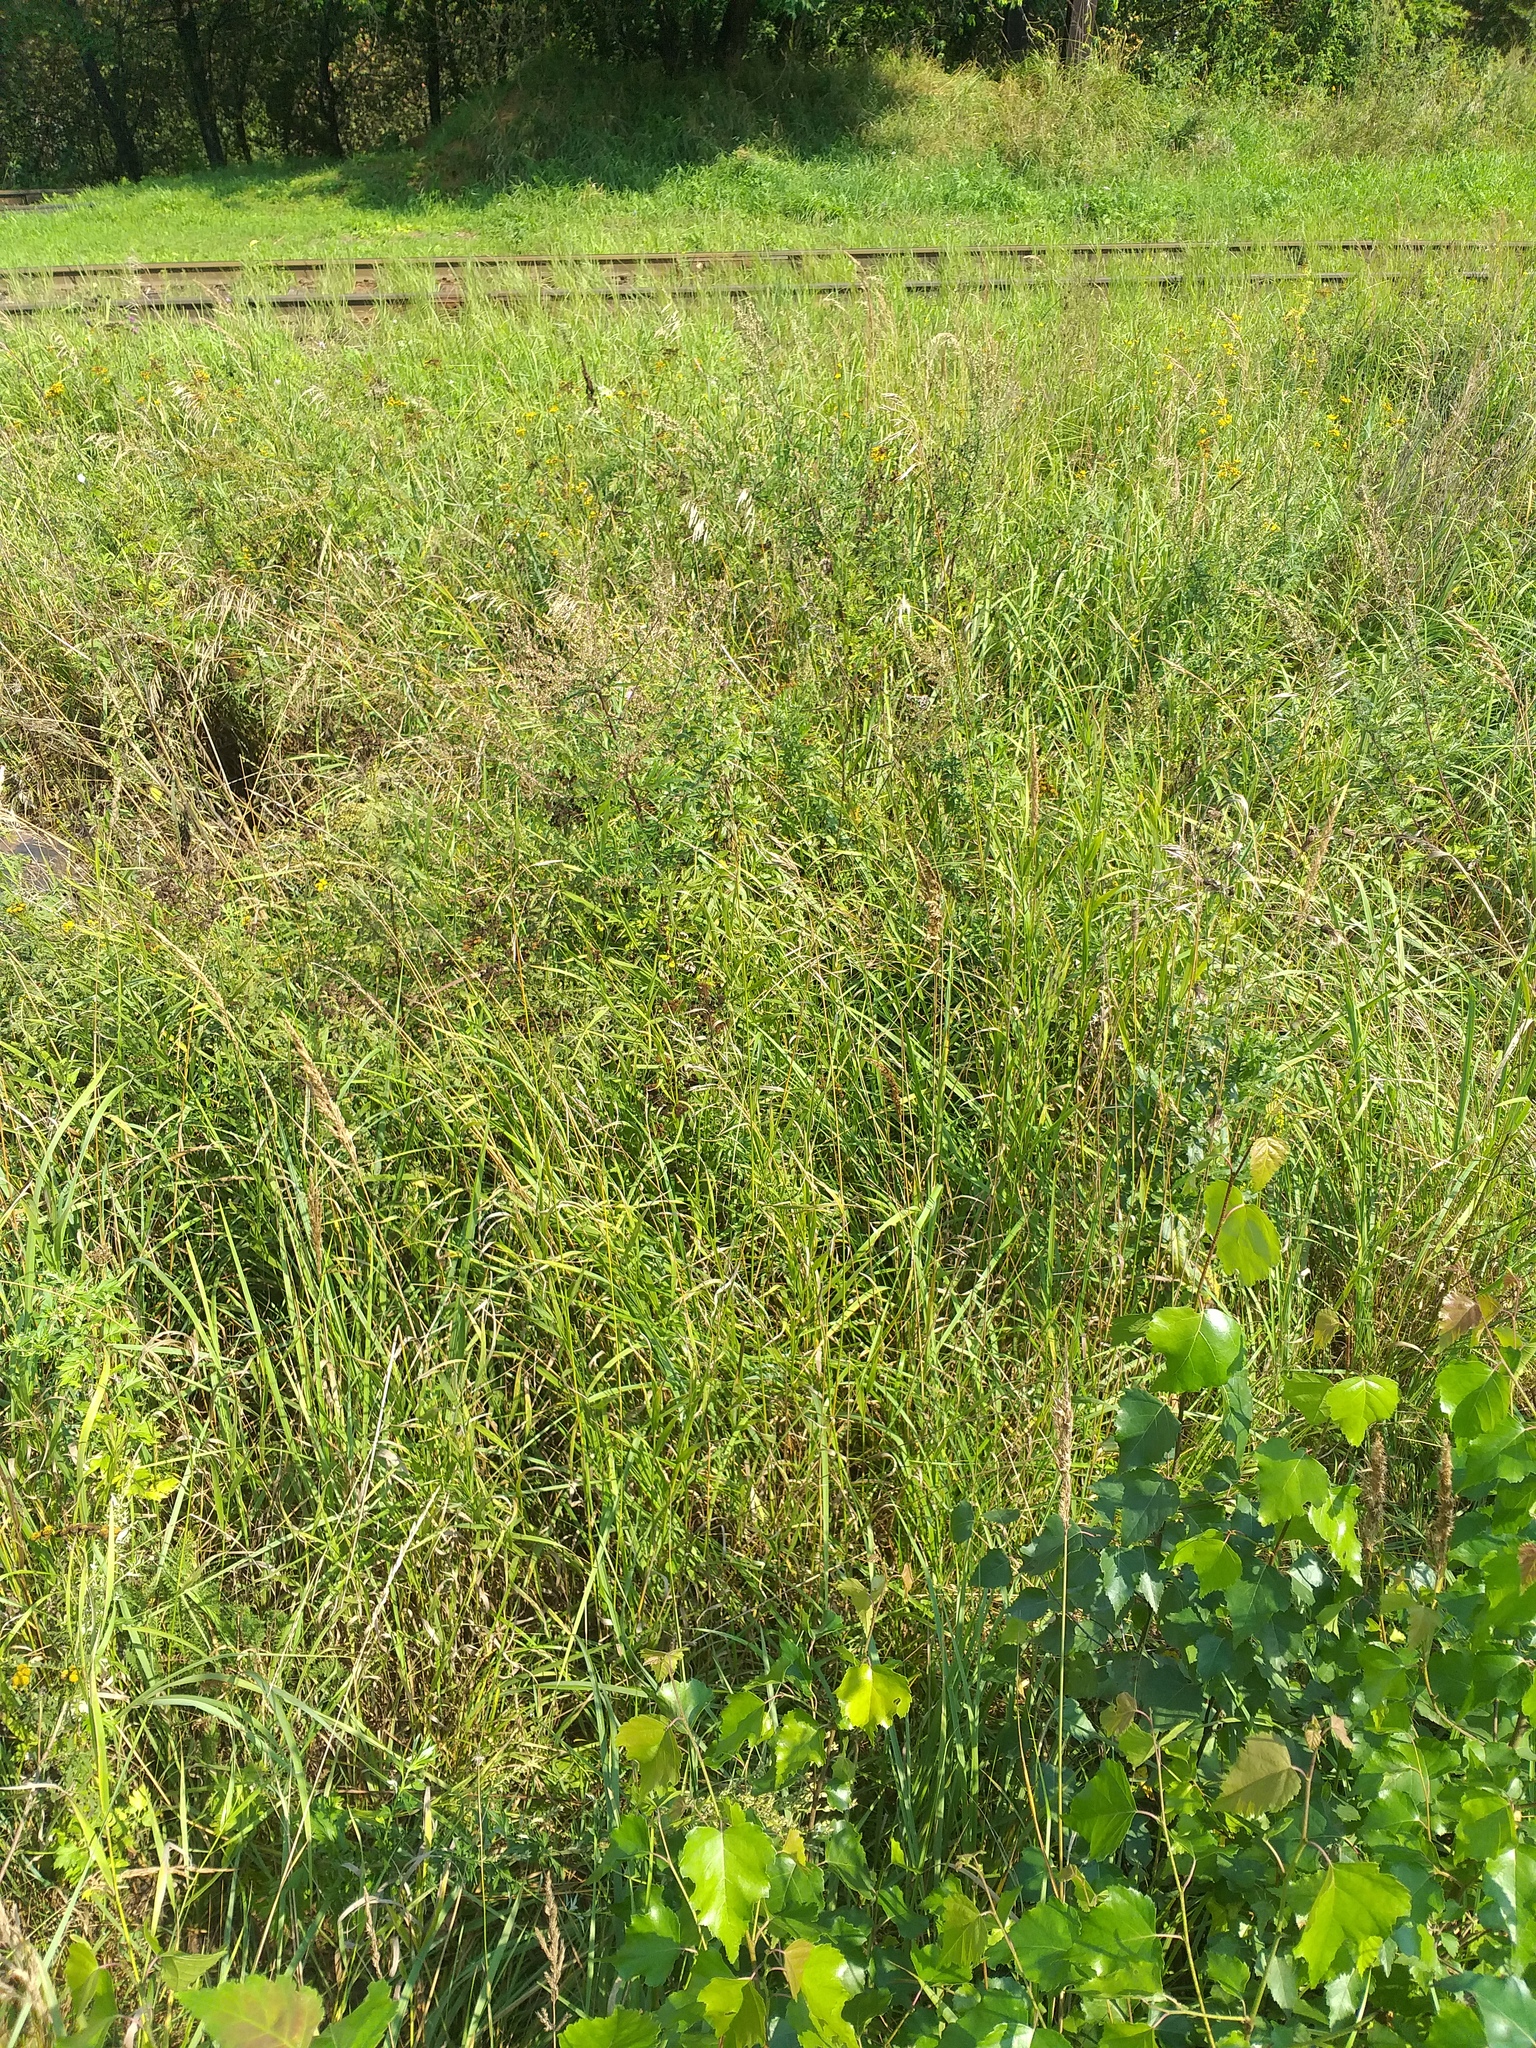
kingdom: Plantae
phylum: Tracheophyta
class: Liliopsida
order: Poales
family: Poaceae
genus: Bromus
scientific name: Bromus inermis
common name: Smooth brome
